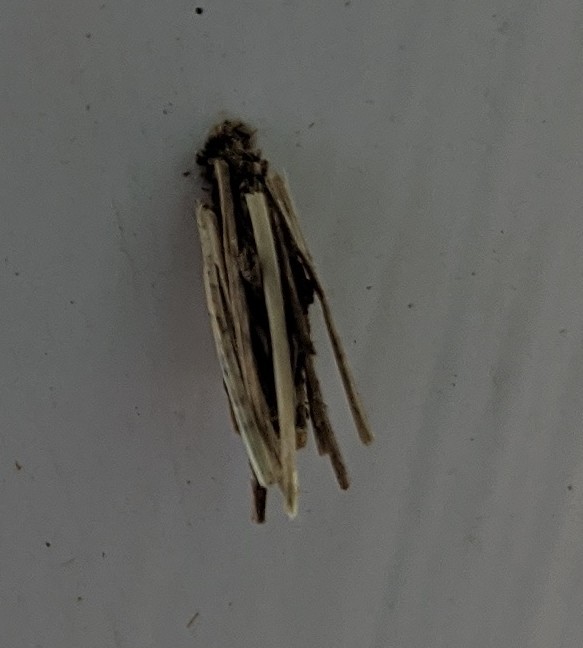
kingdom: Animalia
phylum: Arthropoda
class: Insecta
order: Lepidoptera
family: Psychidae
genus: Psyche
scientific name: Psyche casta
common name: Common sweep
